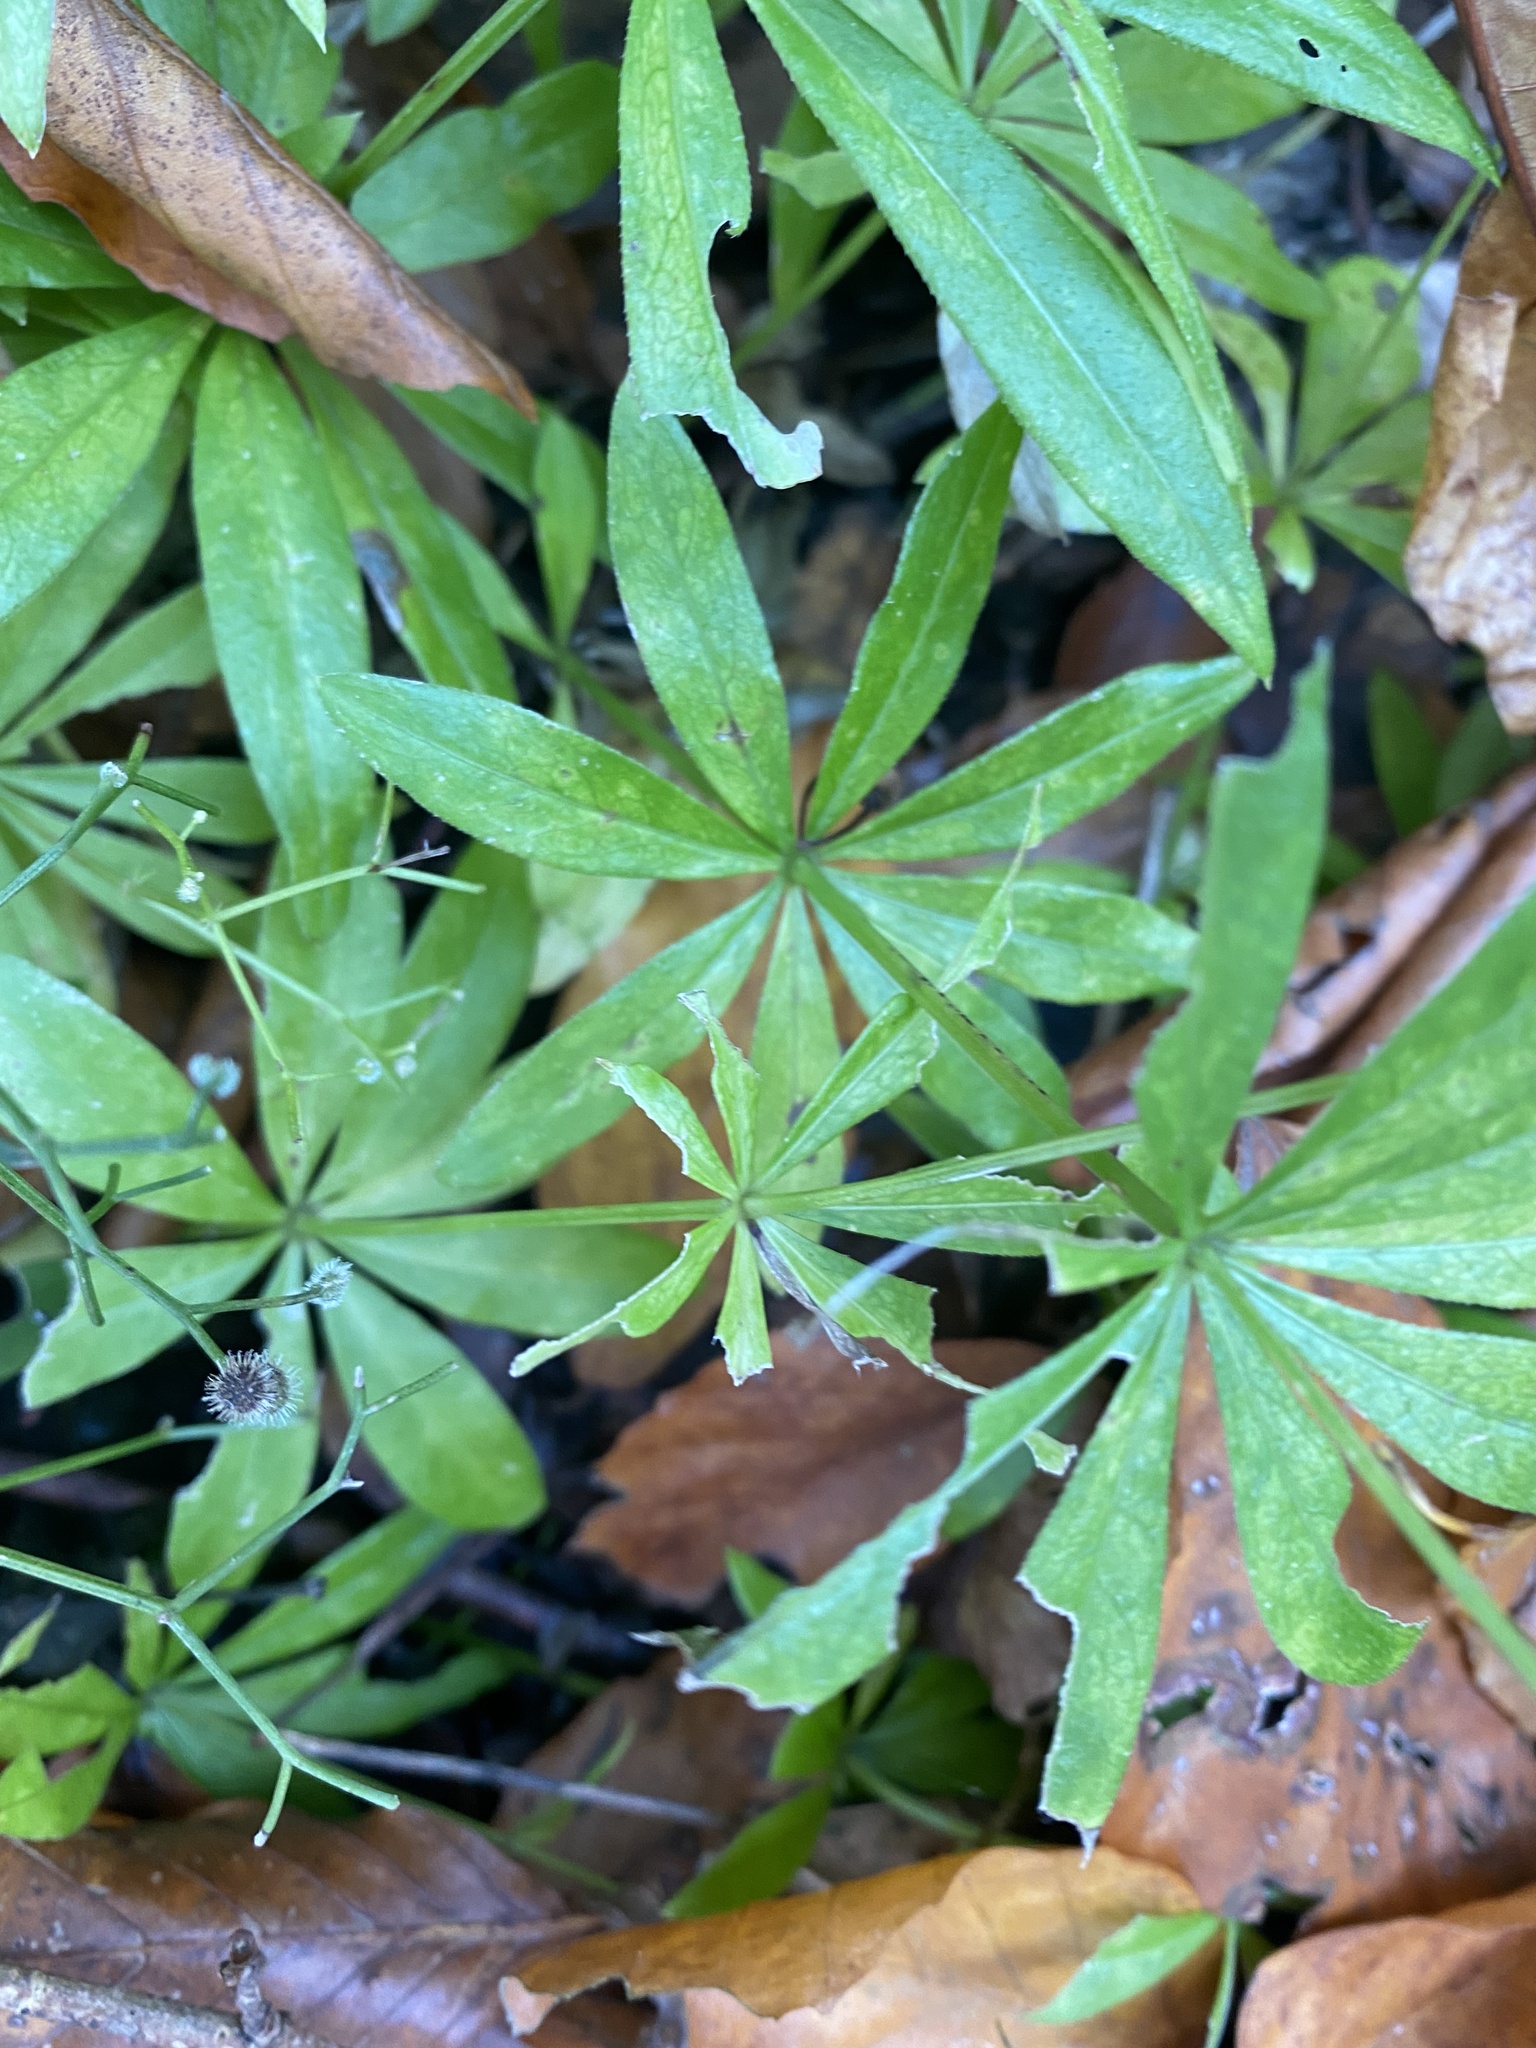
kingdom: Plantae
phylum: Tracheophyta
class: Magnoliopsida
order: Gentianales
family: Rubiaceae
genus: Galium
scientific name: Galium odoratum
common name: Sweet woodruff
